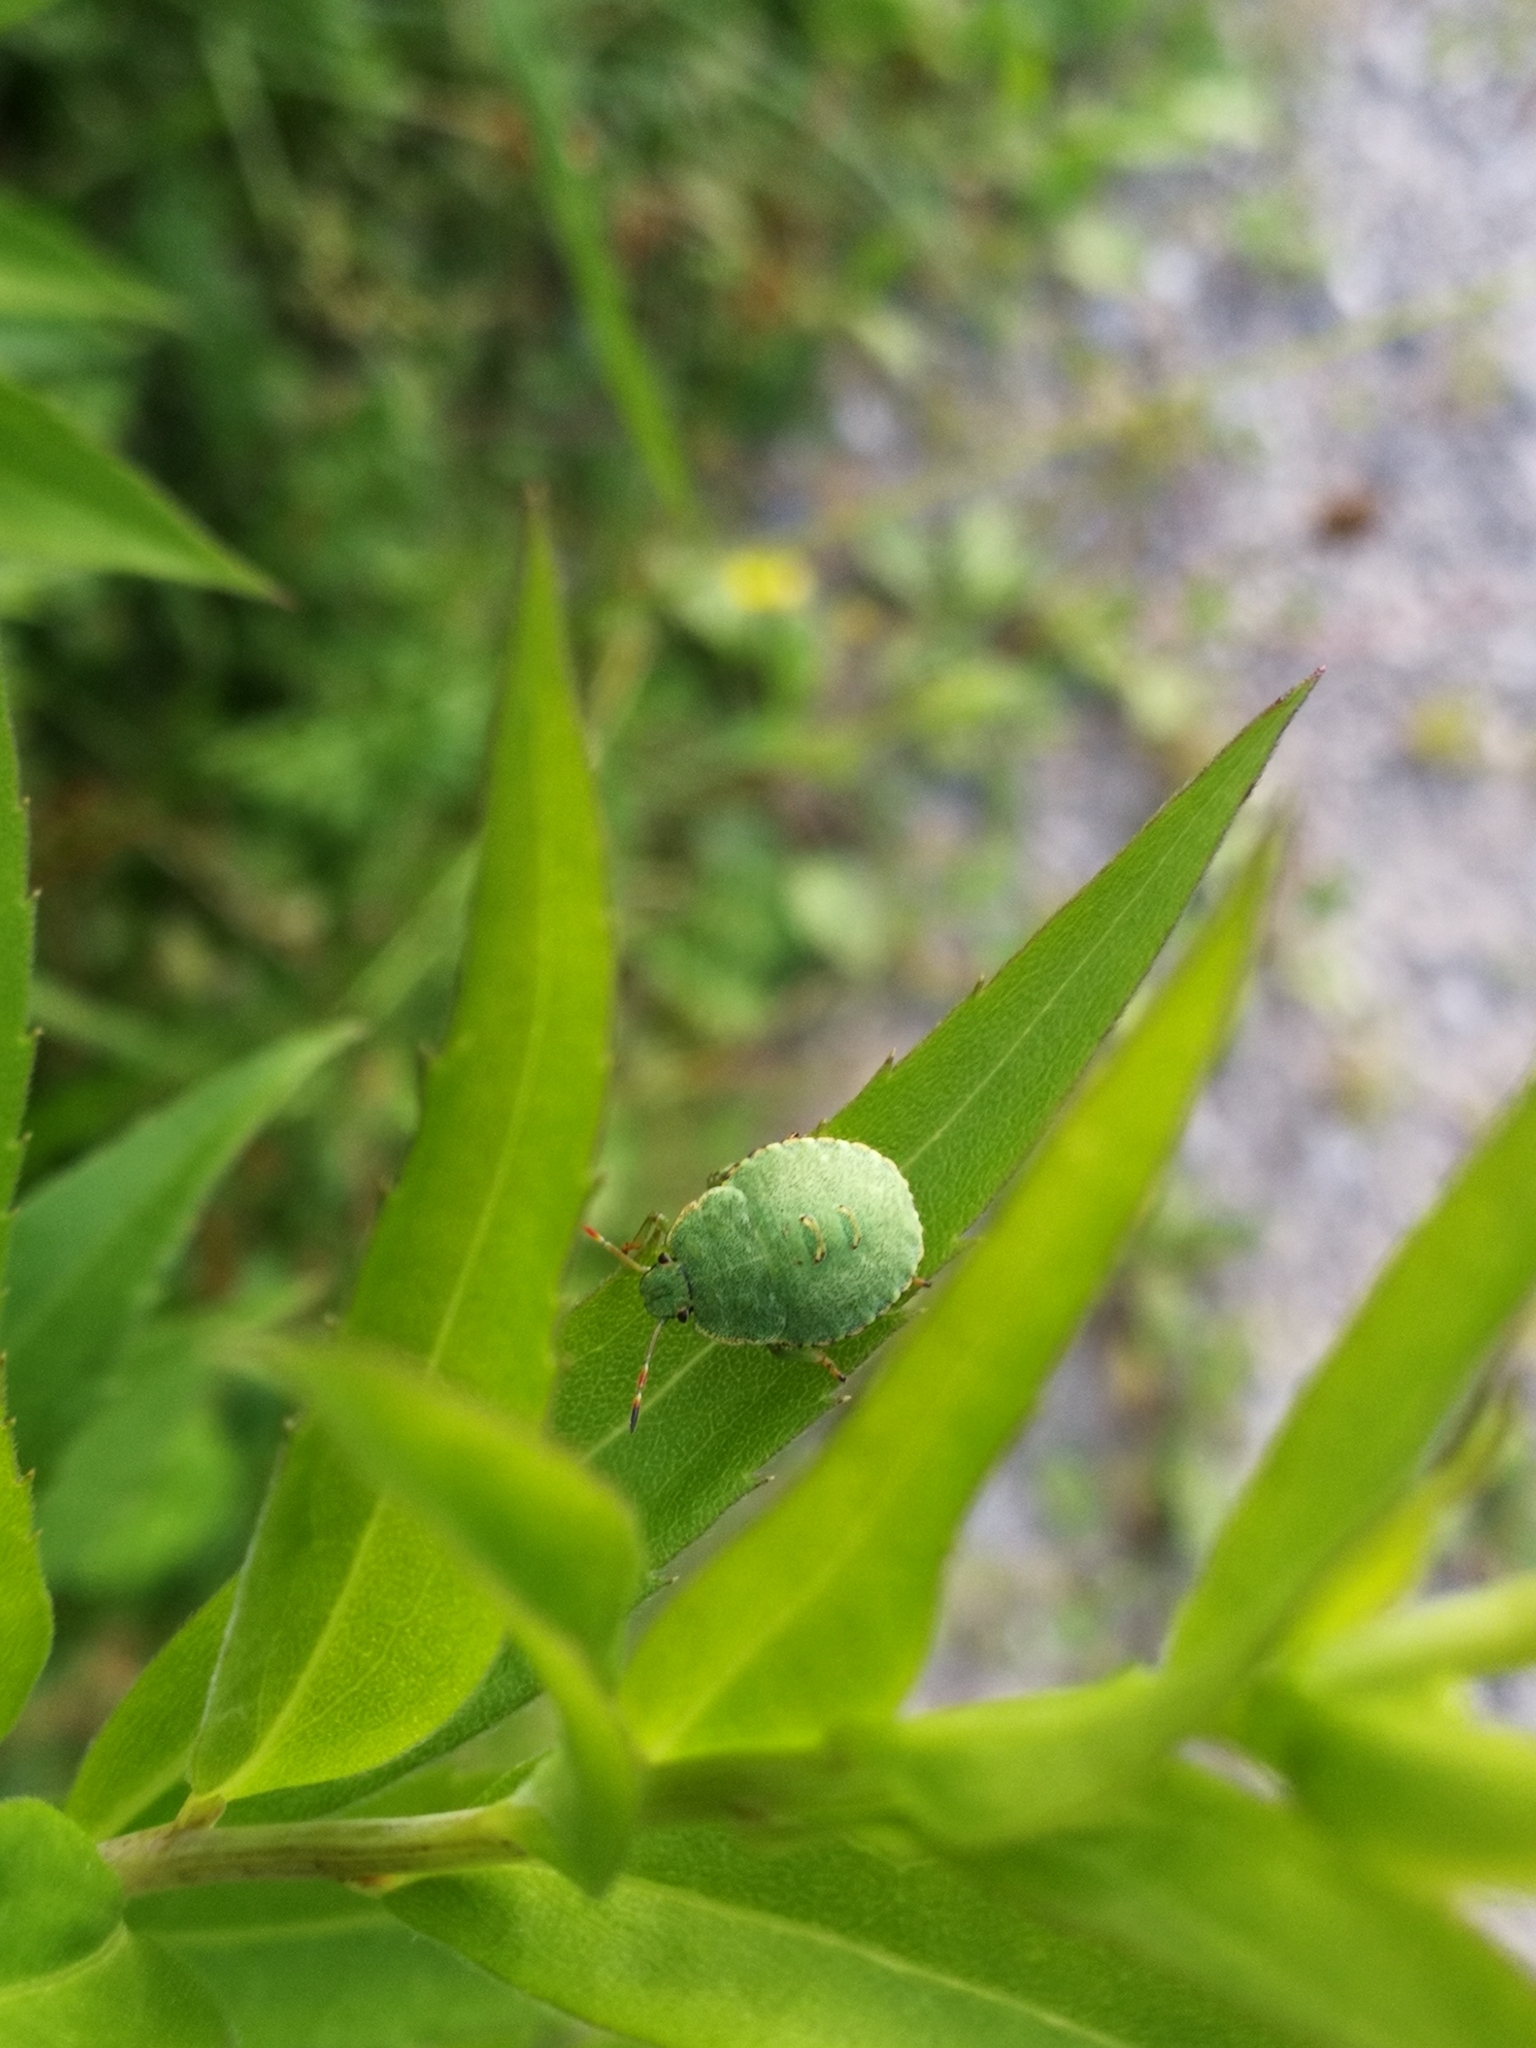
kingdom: Animalia
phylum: Arthropoda
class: Insecta
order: Hemiptera
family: Pentatomidae
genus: Palomena
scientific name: Palomena prasina
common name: Green shieldbug
